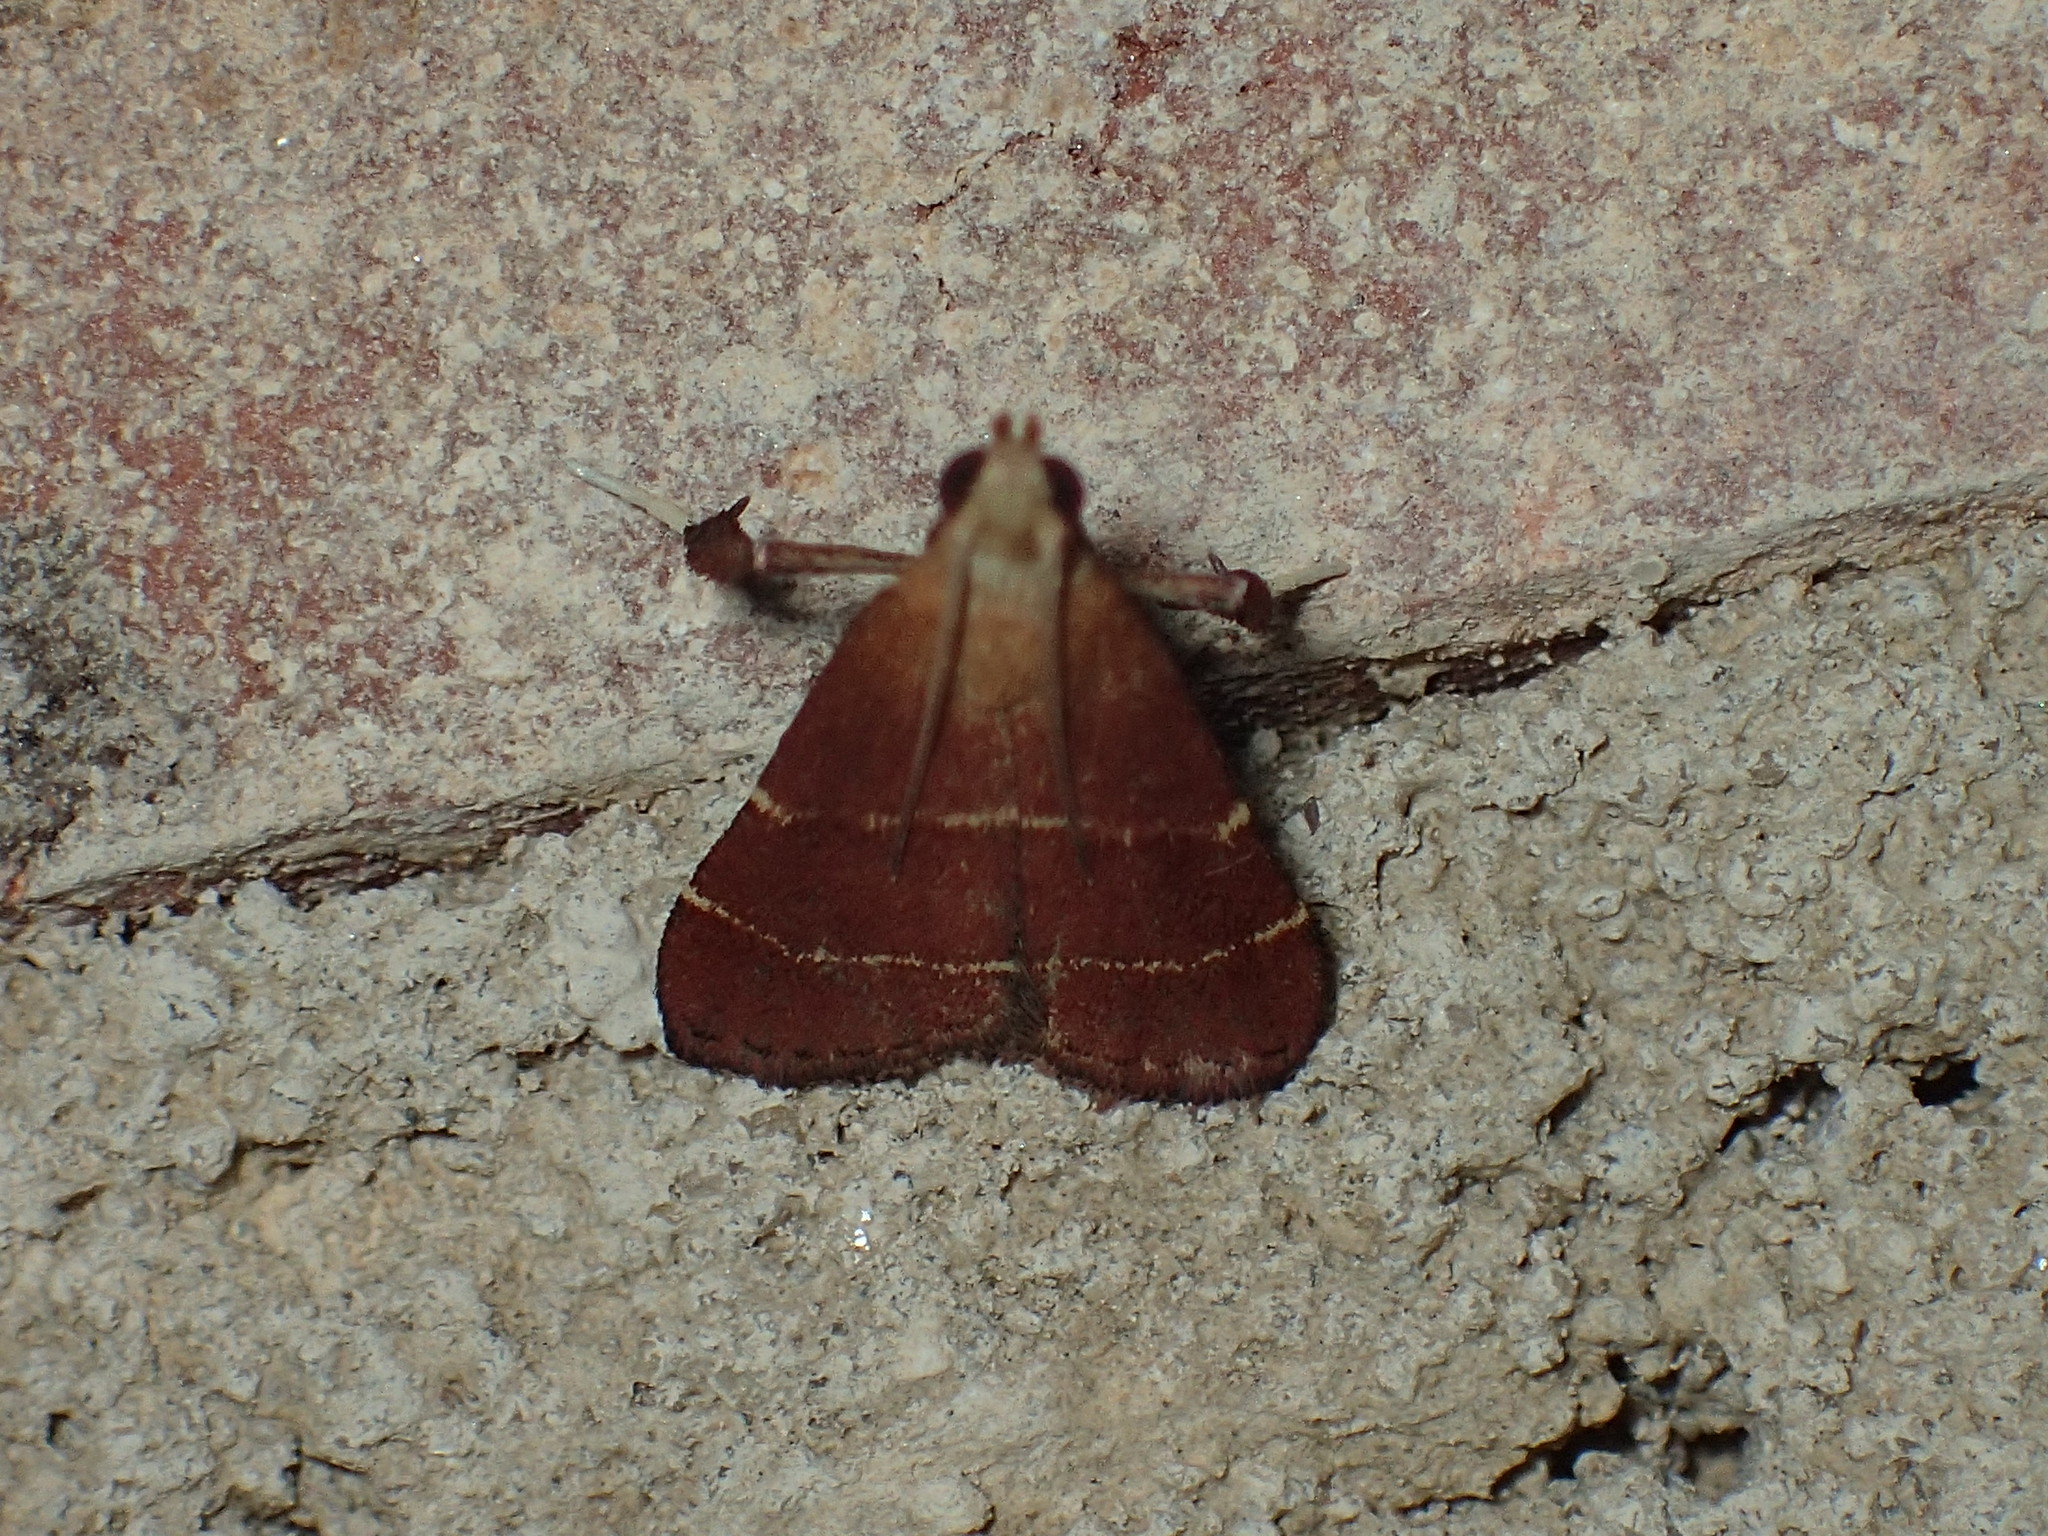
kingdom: Animalia
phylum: Arthropoda
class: Insecta
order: Lepidoptera
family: Pyralidae
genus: Arta
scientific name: Arta statalis
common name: Posturing arta moth
